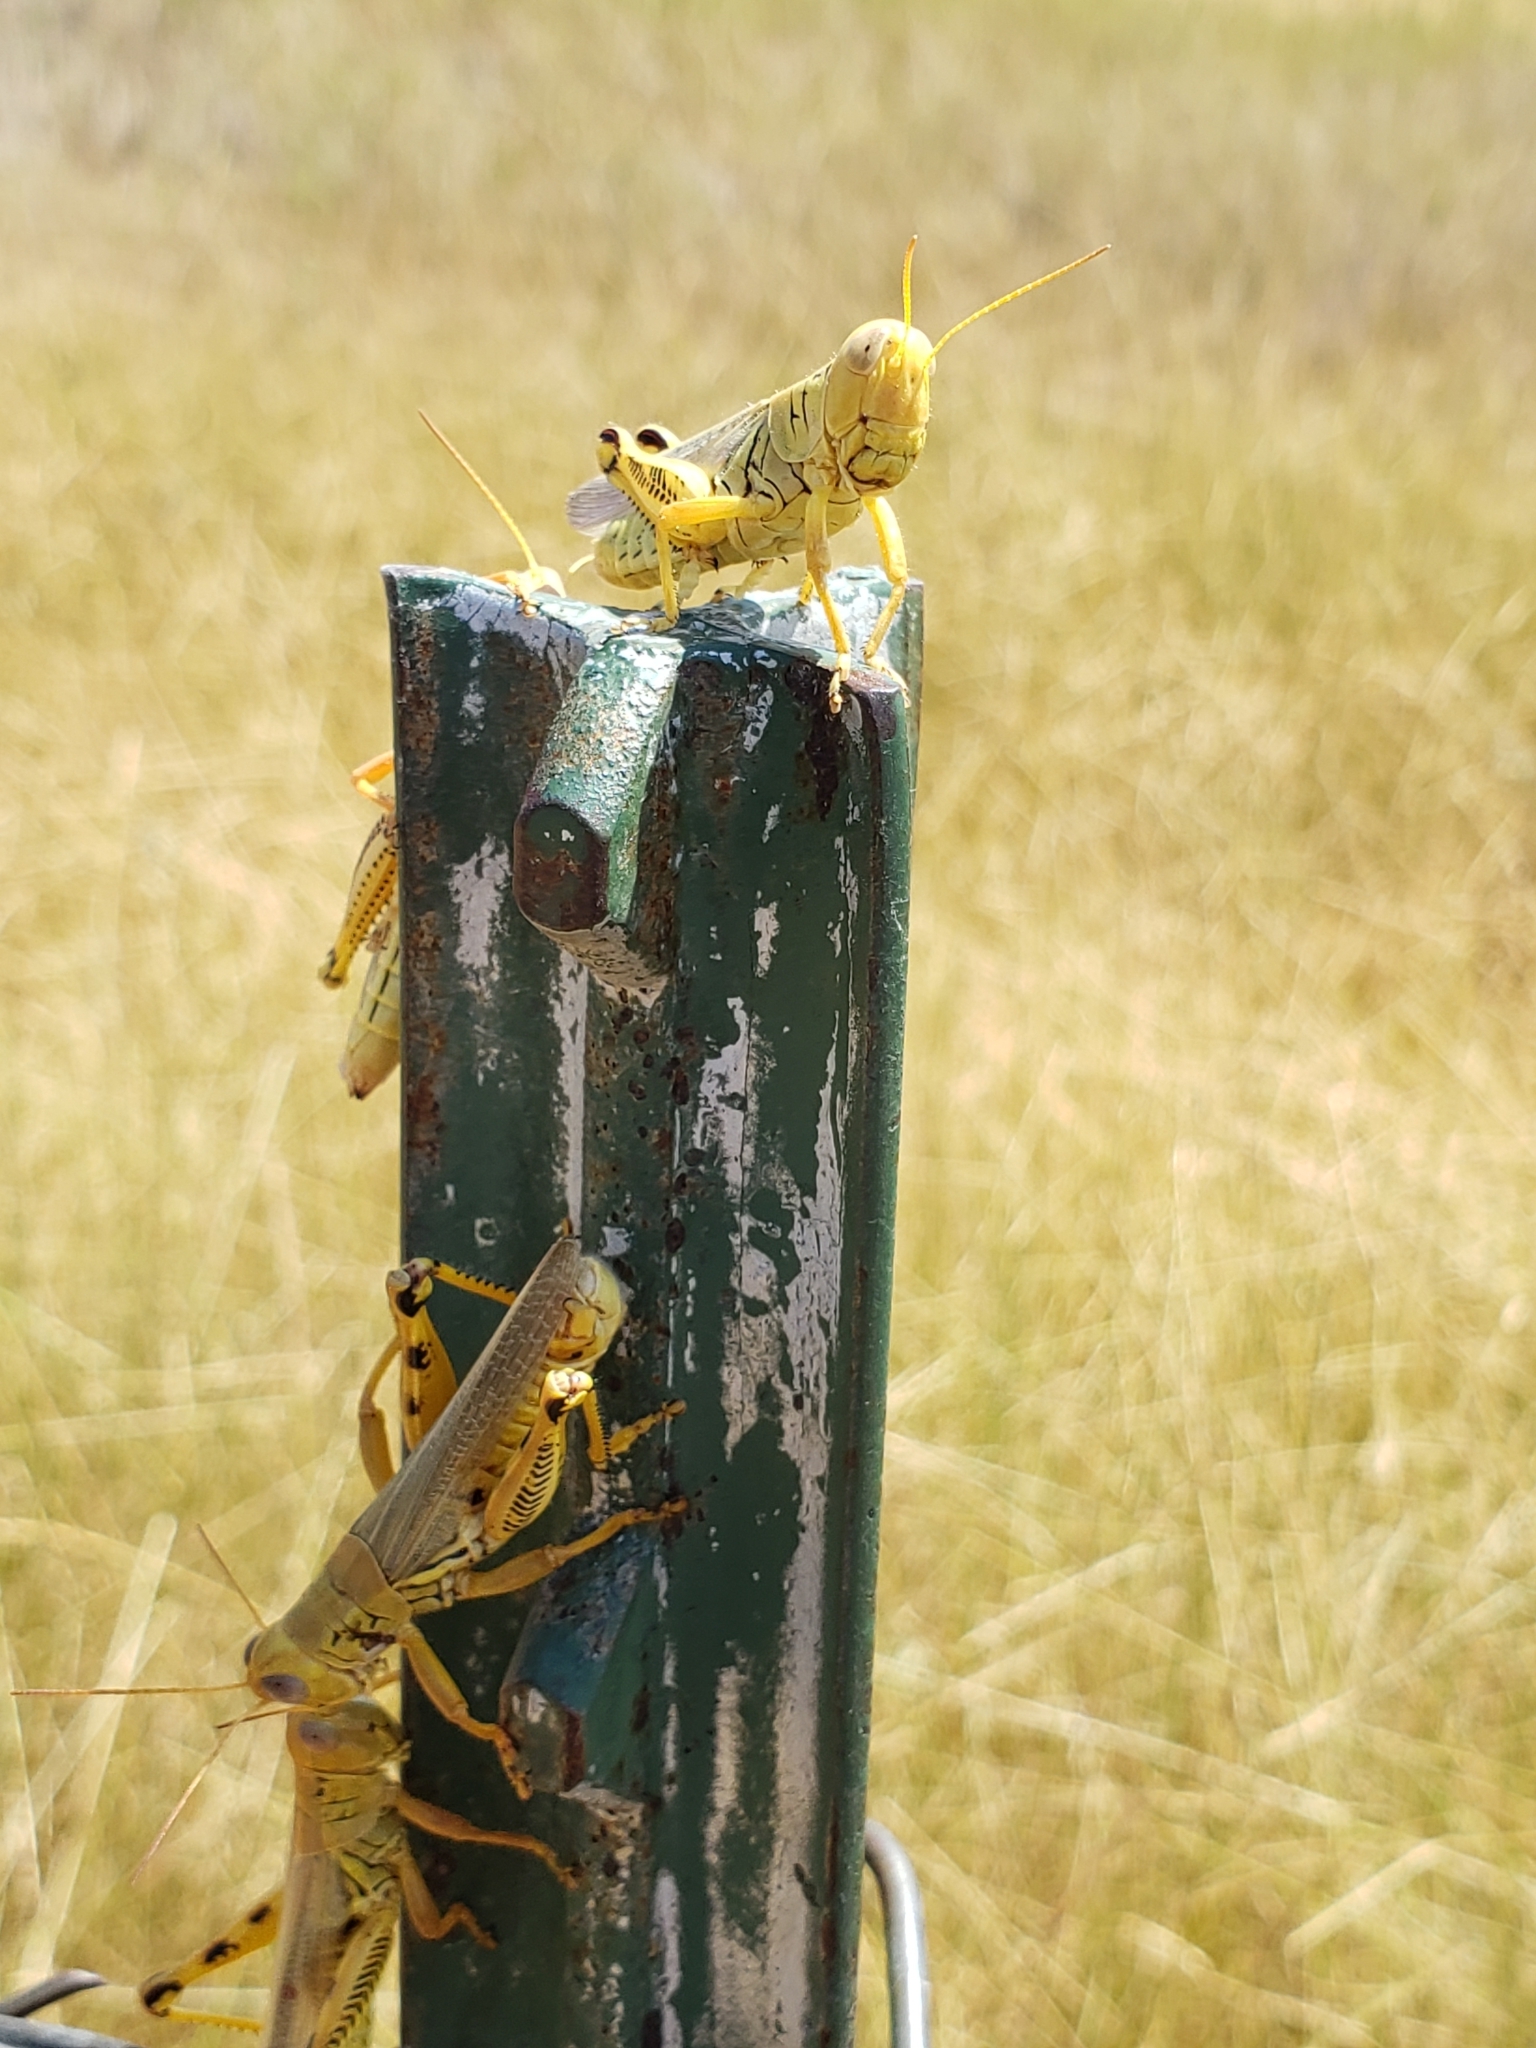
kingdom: Animalia
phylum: Arthropoda
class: Insecta
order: Orthoptera
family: Acrididae
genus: Melanoplus
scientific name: Melanoplus differentialis
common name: Differential grasshopper
